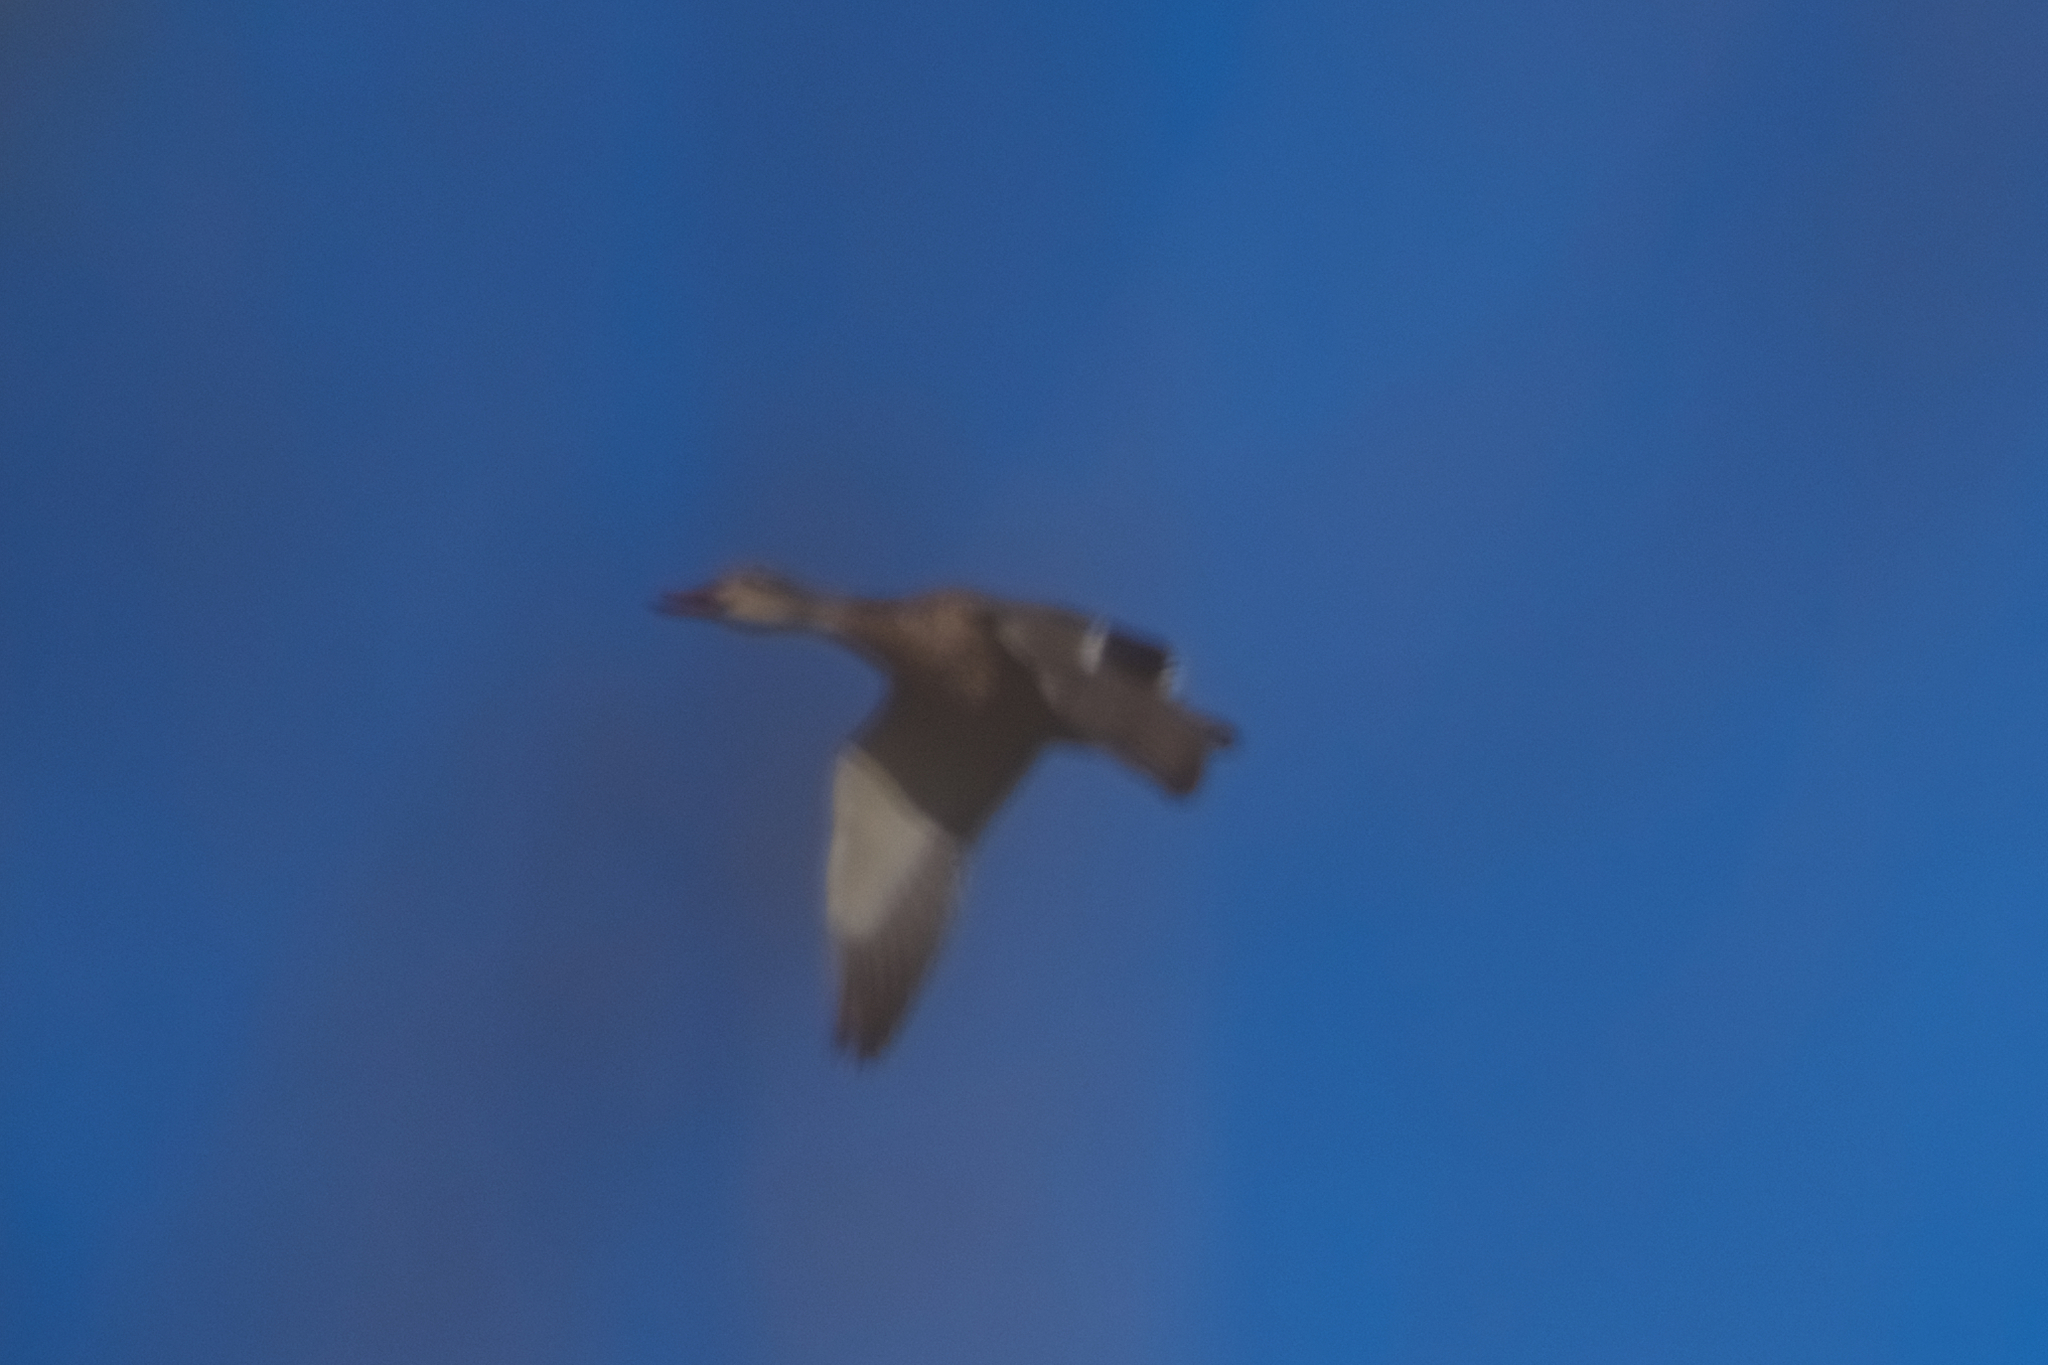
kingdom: Animalia
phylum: Chordata
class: Aves
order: Anseriformes
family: Anatidae
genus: Anas
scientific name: Anas platyrhynchos
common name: Mallard
